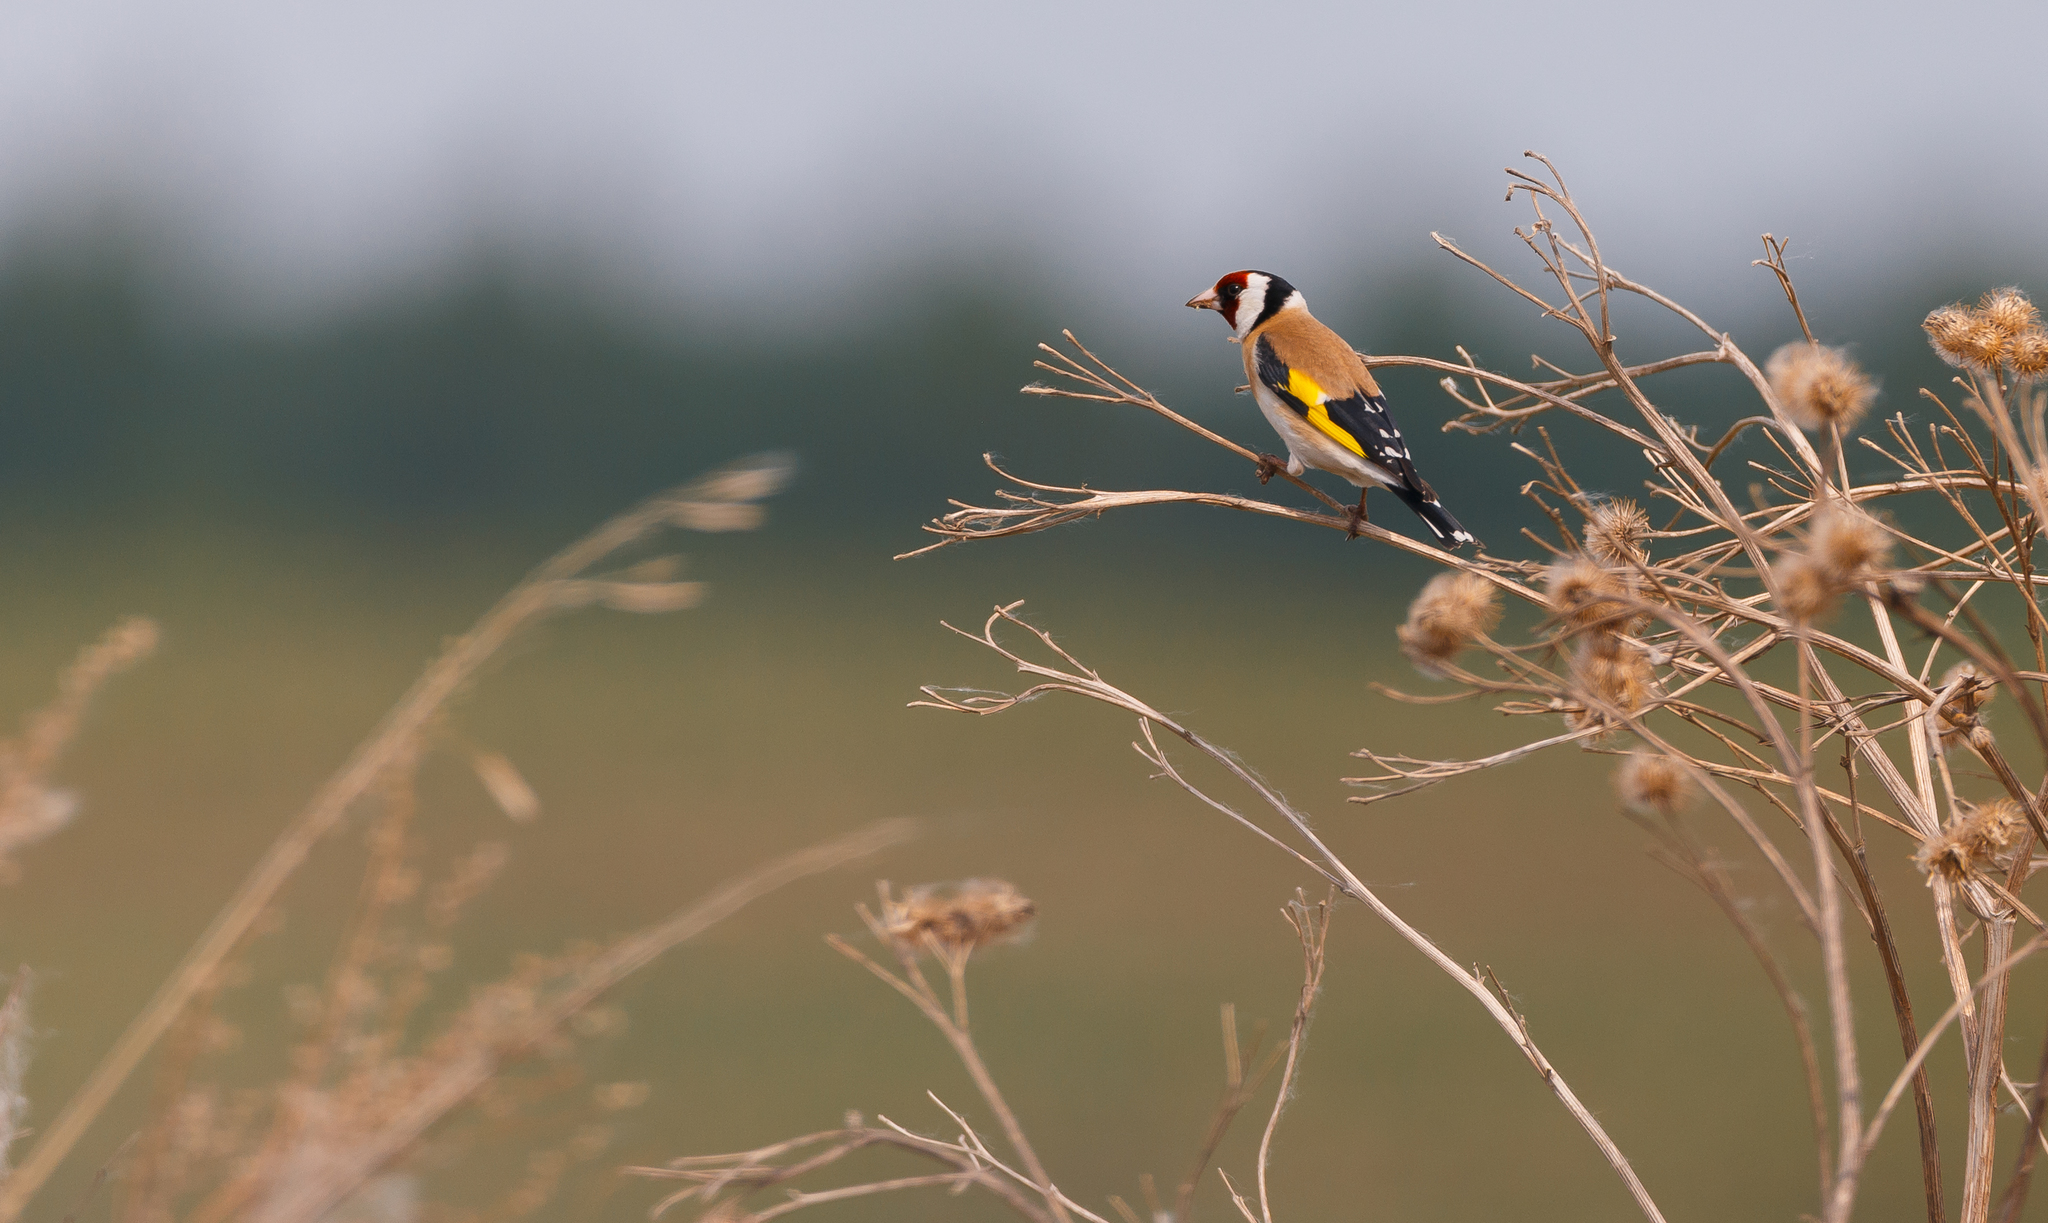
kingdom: Animalia
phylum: Chordata
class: Aves
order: Passeriformes
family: Fringillidae
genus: Carduelis
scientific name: Carduelis carduelis
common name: European goldfinch
